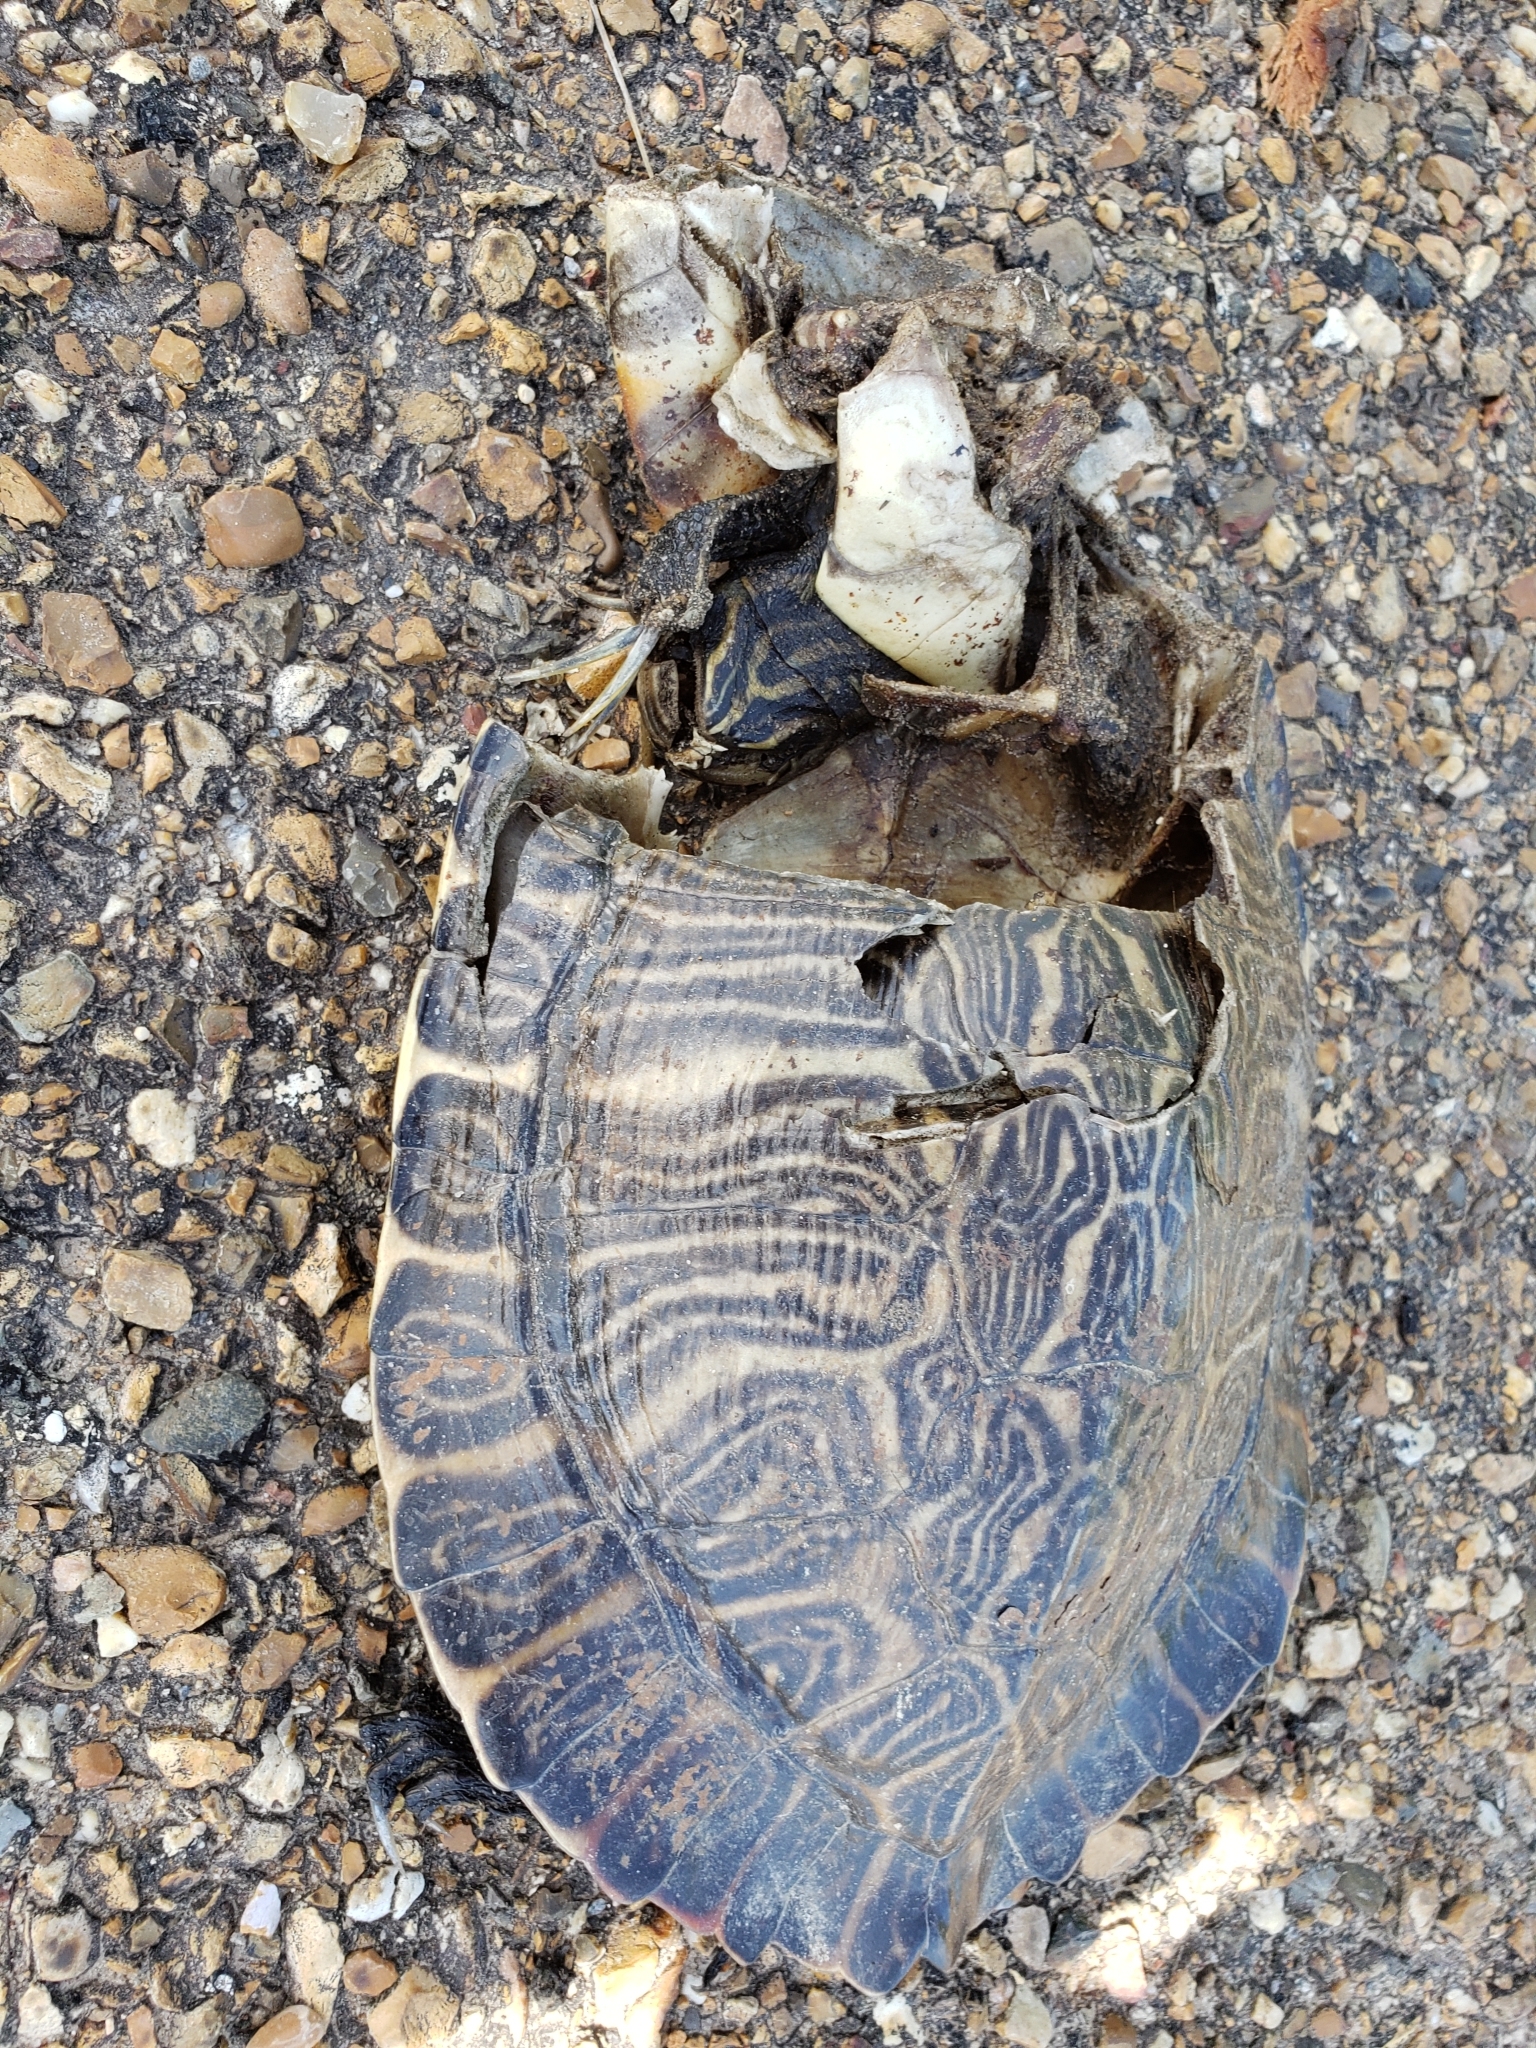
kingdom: Animalia
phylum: Chordata
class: Testudines
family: Emydidae
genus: Pseudemys
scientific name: Pseudemys concinna
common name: Eastern river cooter
